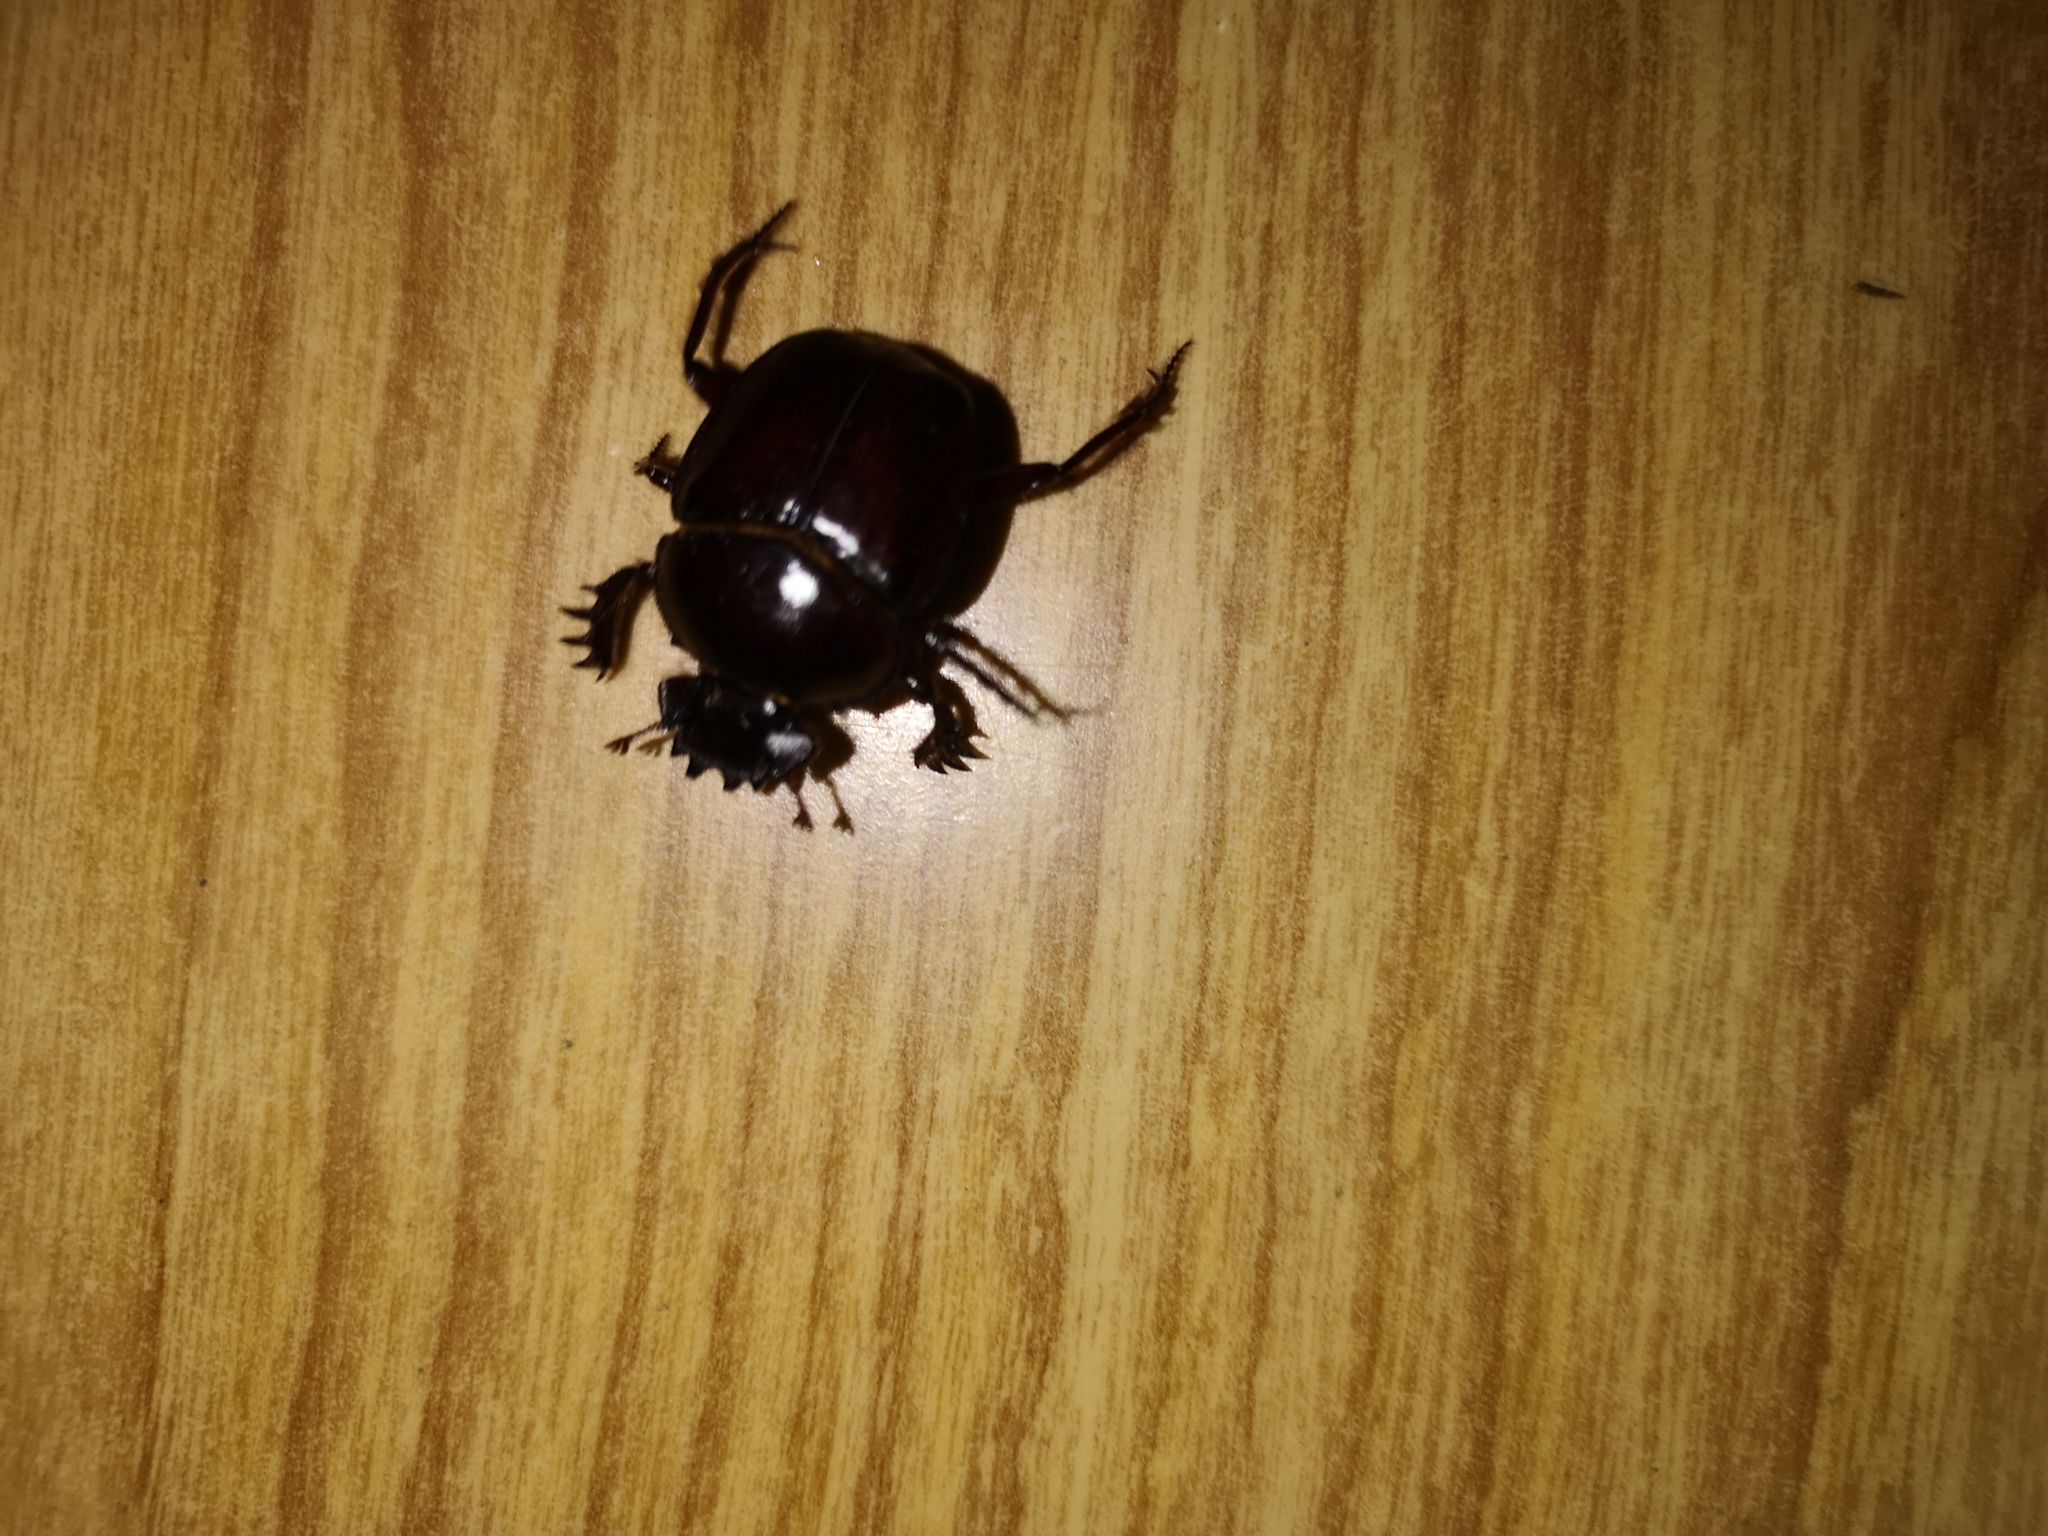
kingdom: Animalia
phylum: Arthropoda
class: Insecta
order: Coleoptera
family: Scarabaeidae
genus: Scarabaeus
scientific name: Scarabaeus zambesianus
